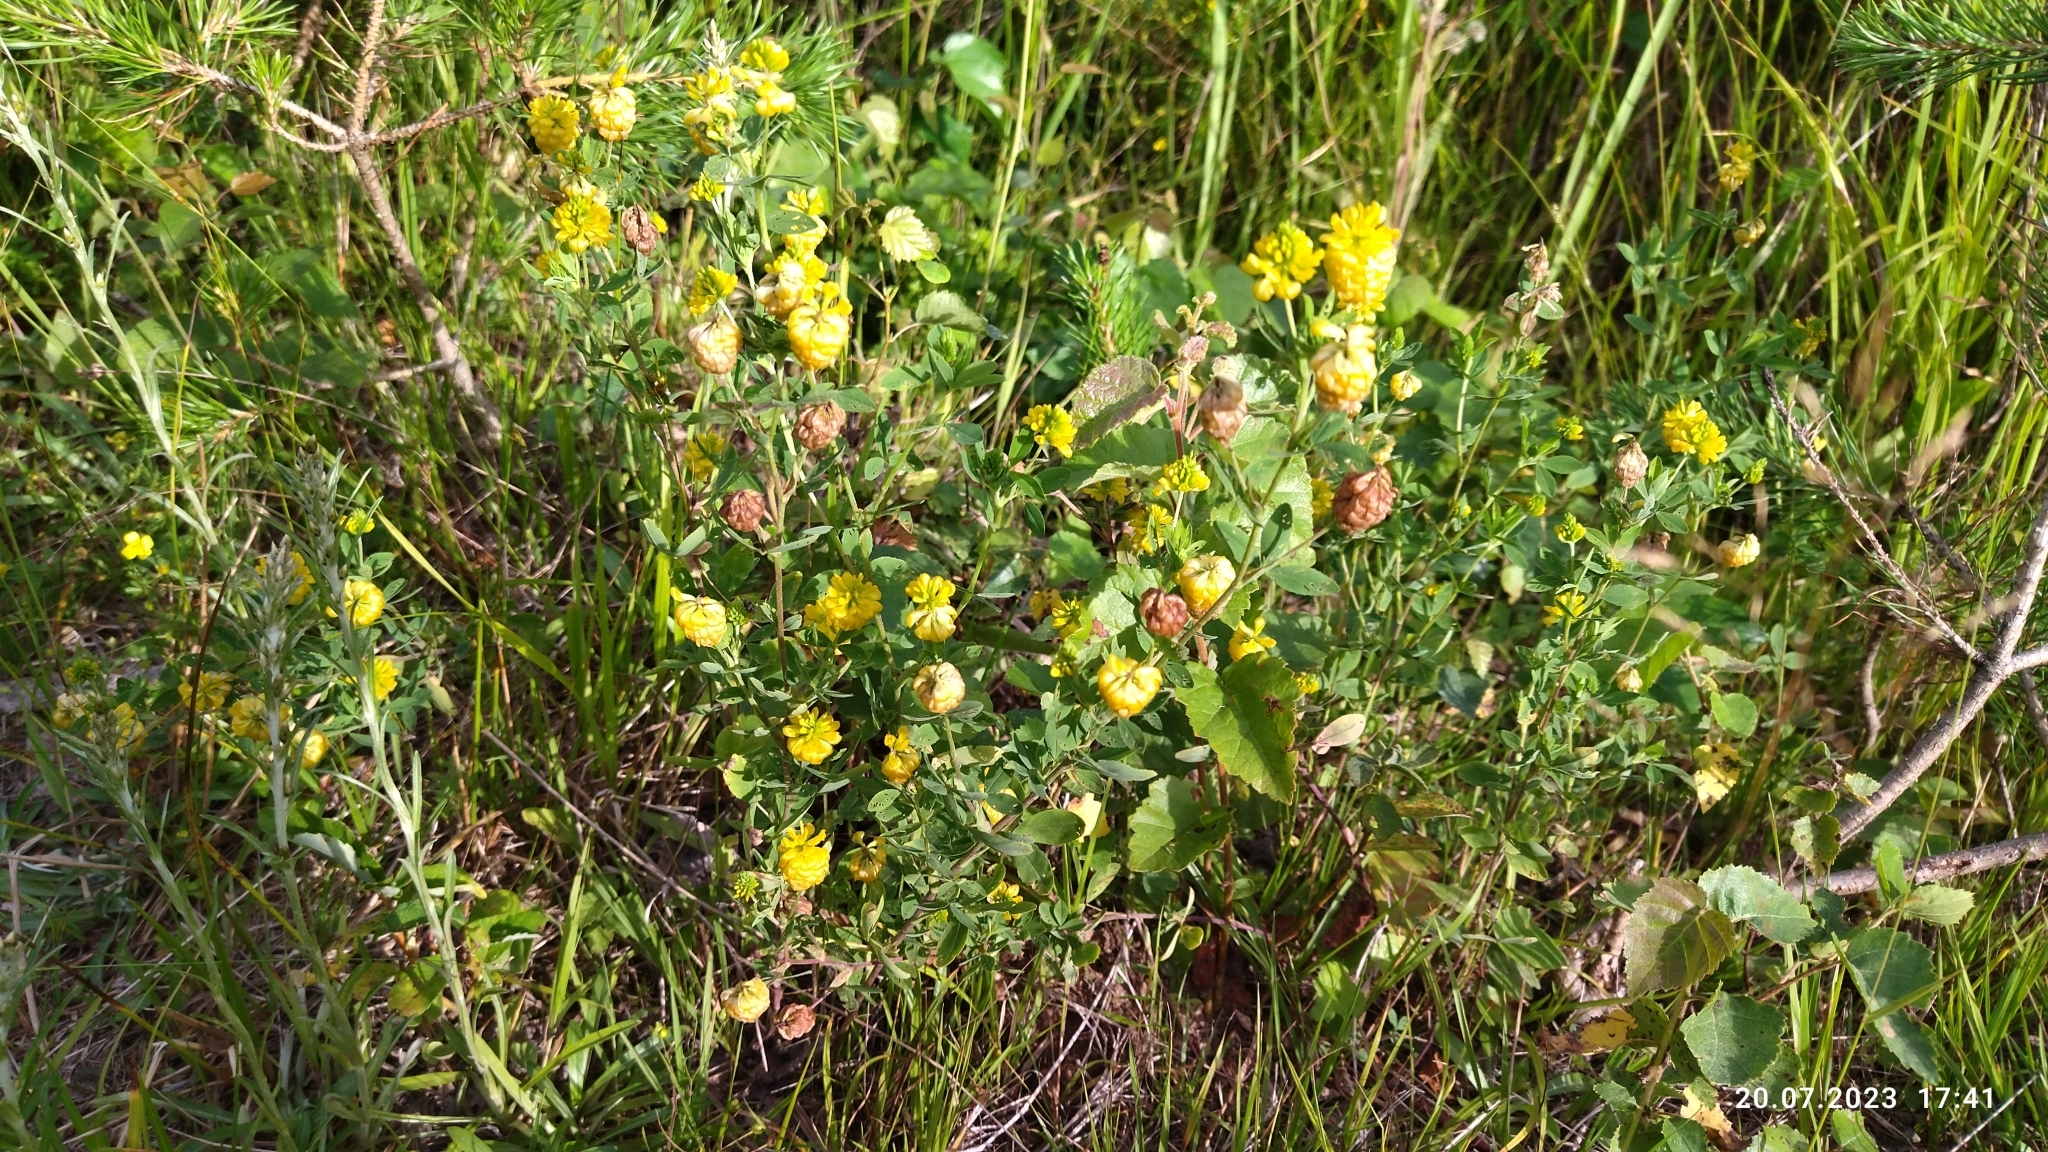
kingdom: Plantae
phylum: Tracheophyta
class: Magnoliopsida
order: Fabales
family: Fabaceae
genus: Trifolium
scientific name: Trifolium aureum
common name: Golden clover
